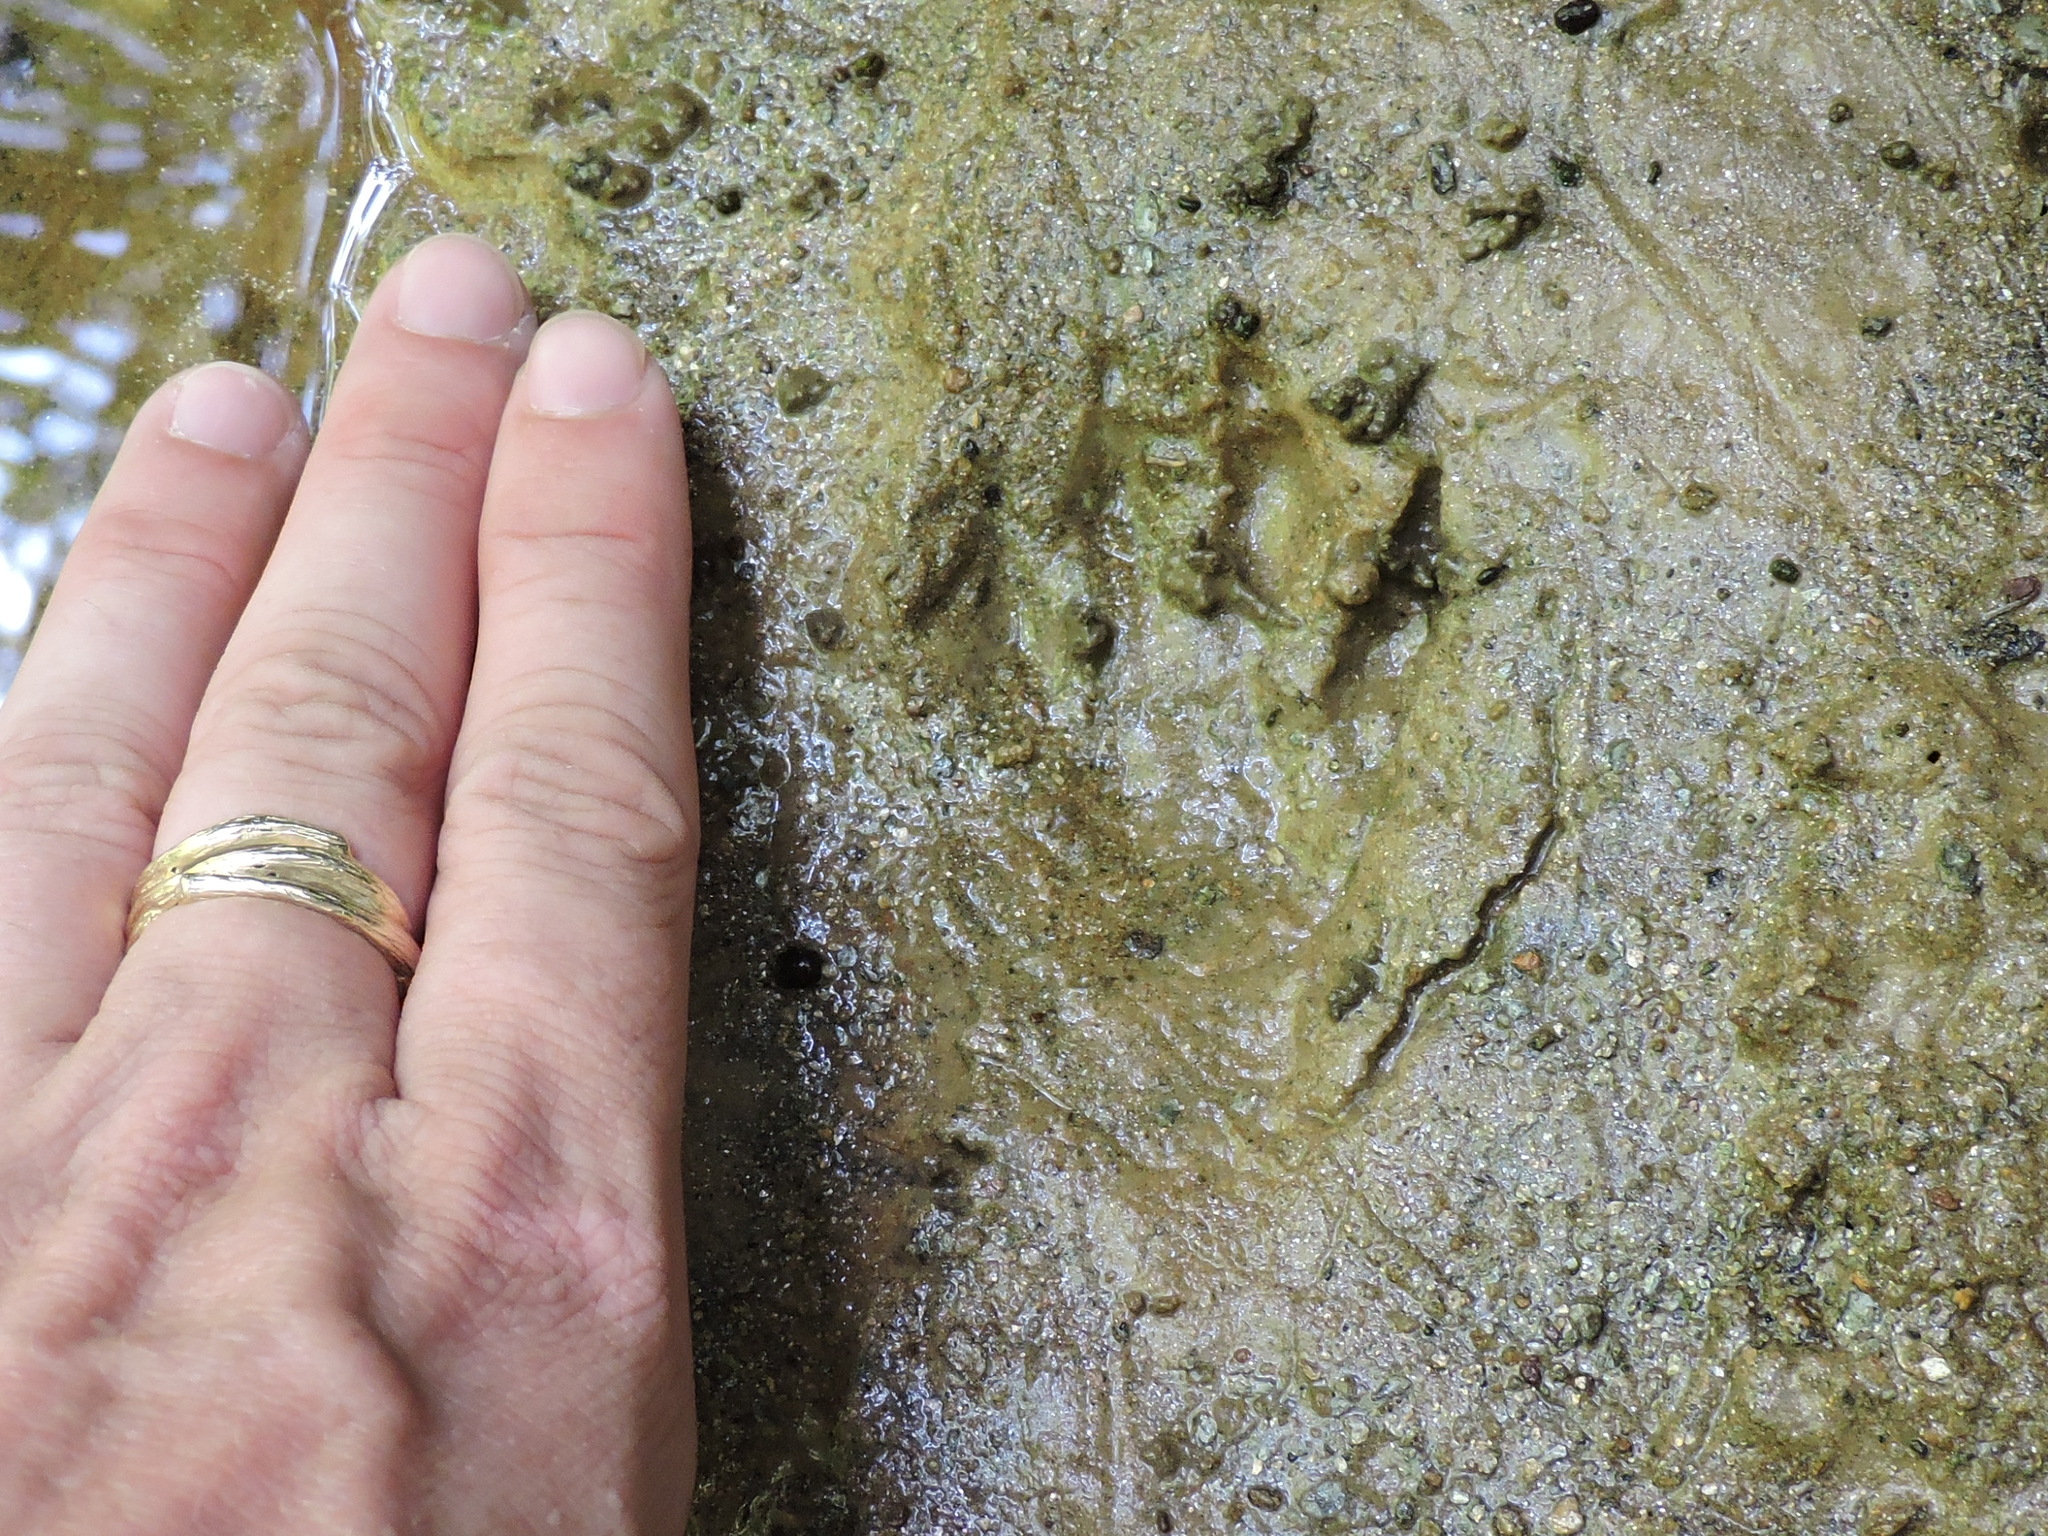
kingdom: Animalia
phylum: Chordata
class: Mammalia
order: Carnivora
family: Procyonidae
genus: Procyon
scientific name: Procyon lotor
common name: Raccoon
